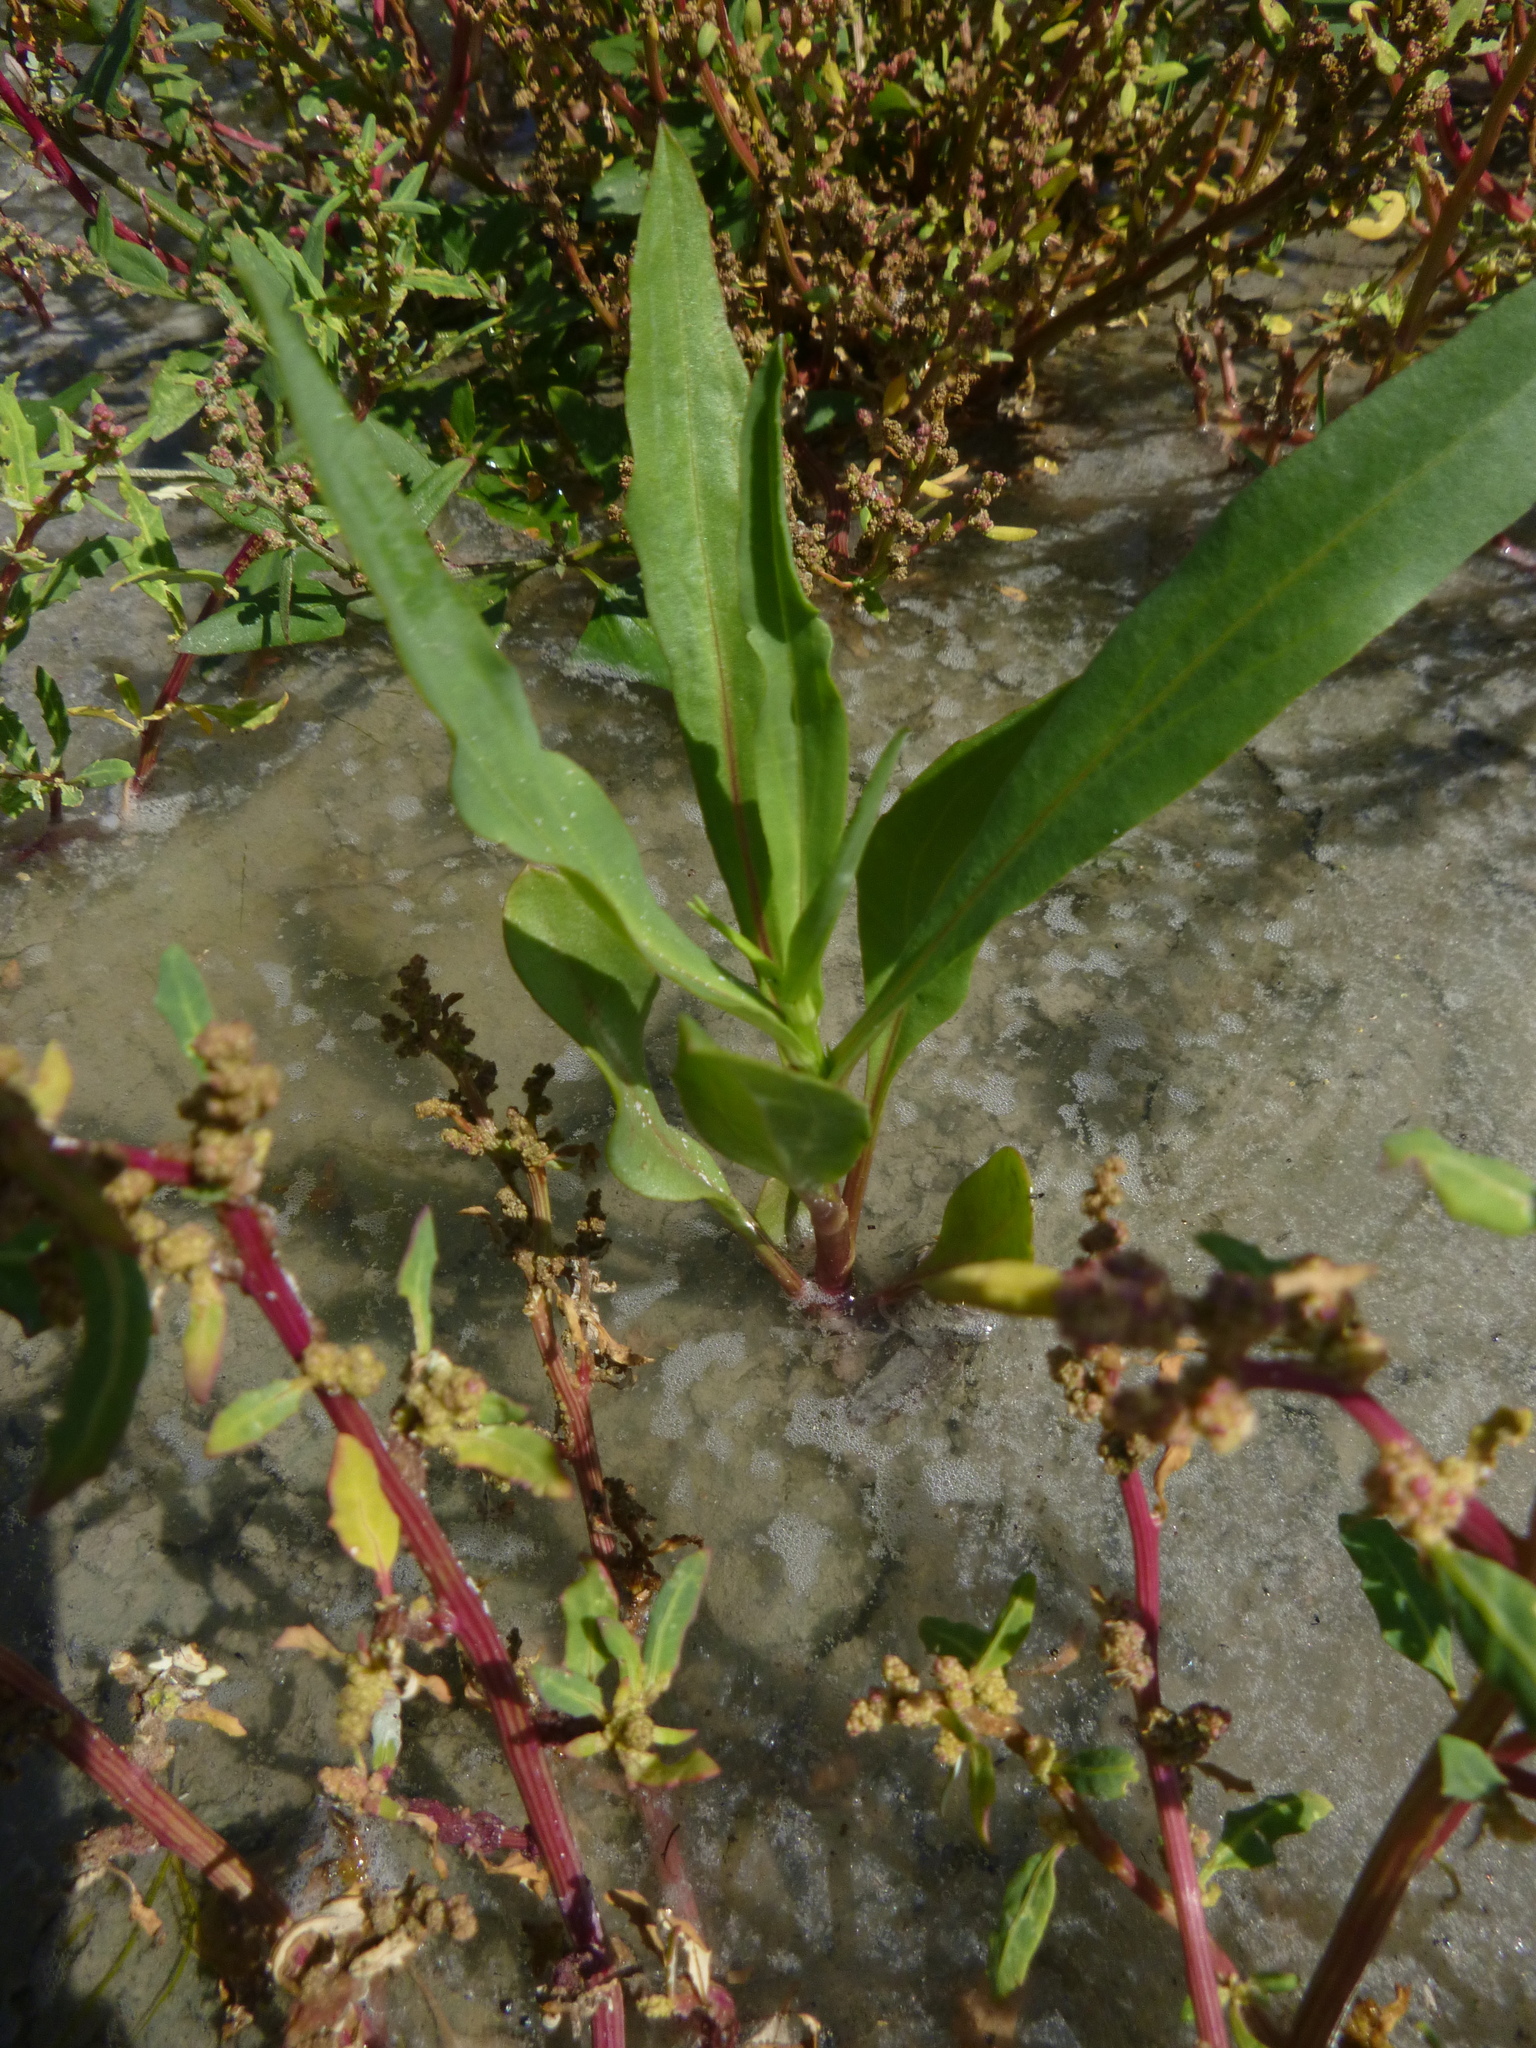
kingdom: Plantae
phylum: Tracheophyta
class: Magnoliopsida
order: Caryophyllales
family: Polygonaceae
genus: Rumex
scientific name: Rumex maritimus
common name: Golden dock
